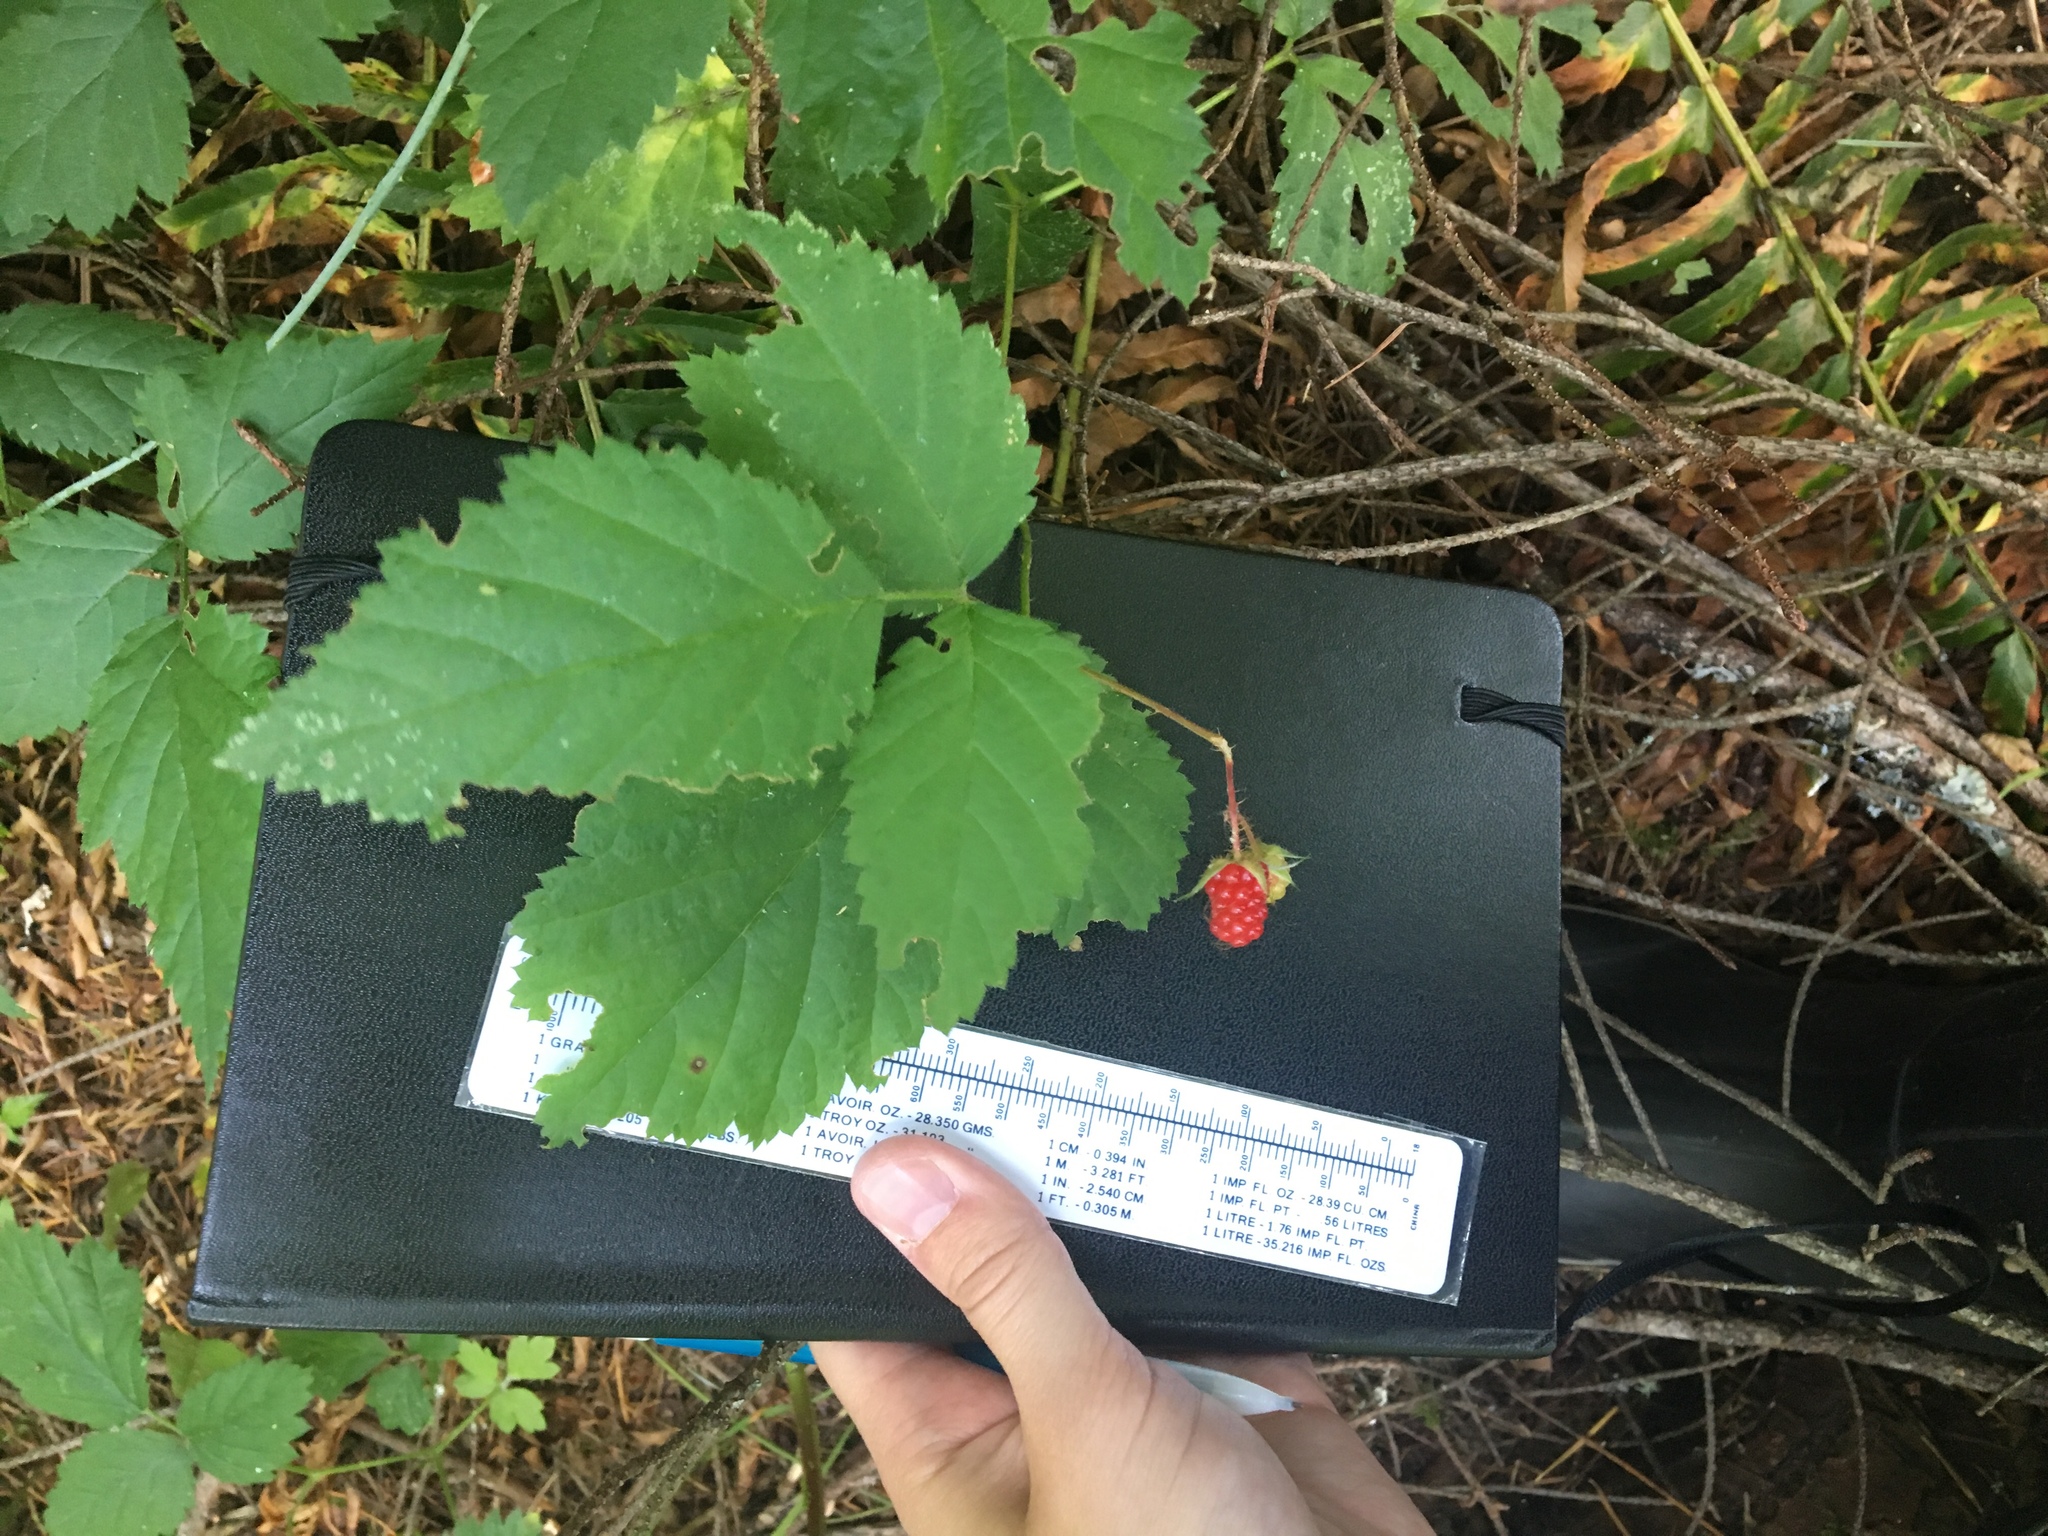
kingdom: Plantae
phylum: Tracheophyta
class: Magnoliopsida
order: Rosales
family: Rosaceae
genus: Rubus
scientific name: Rubus ursinus
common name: Pacific blackberry
